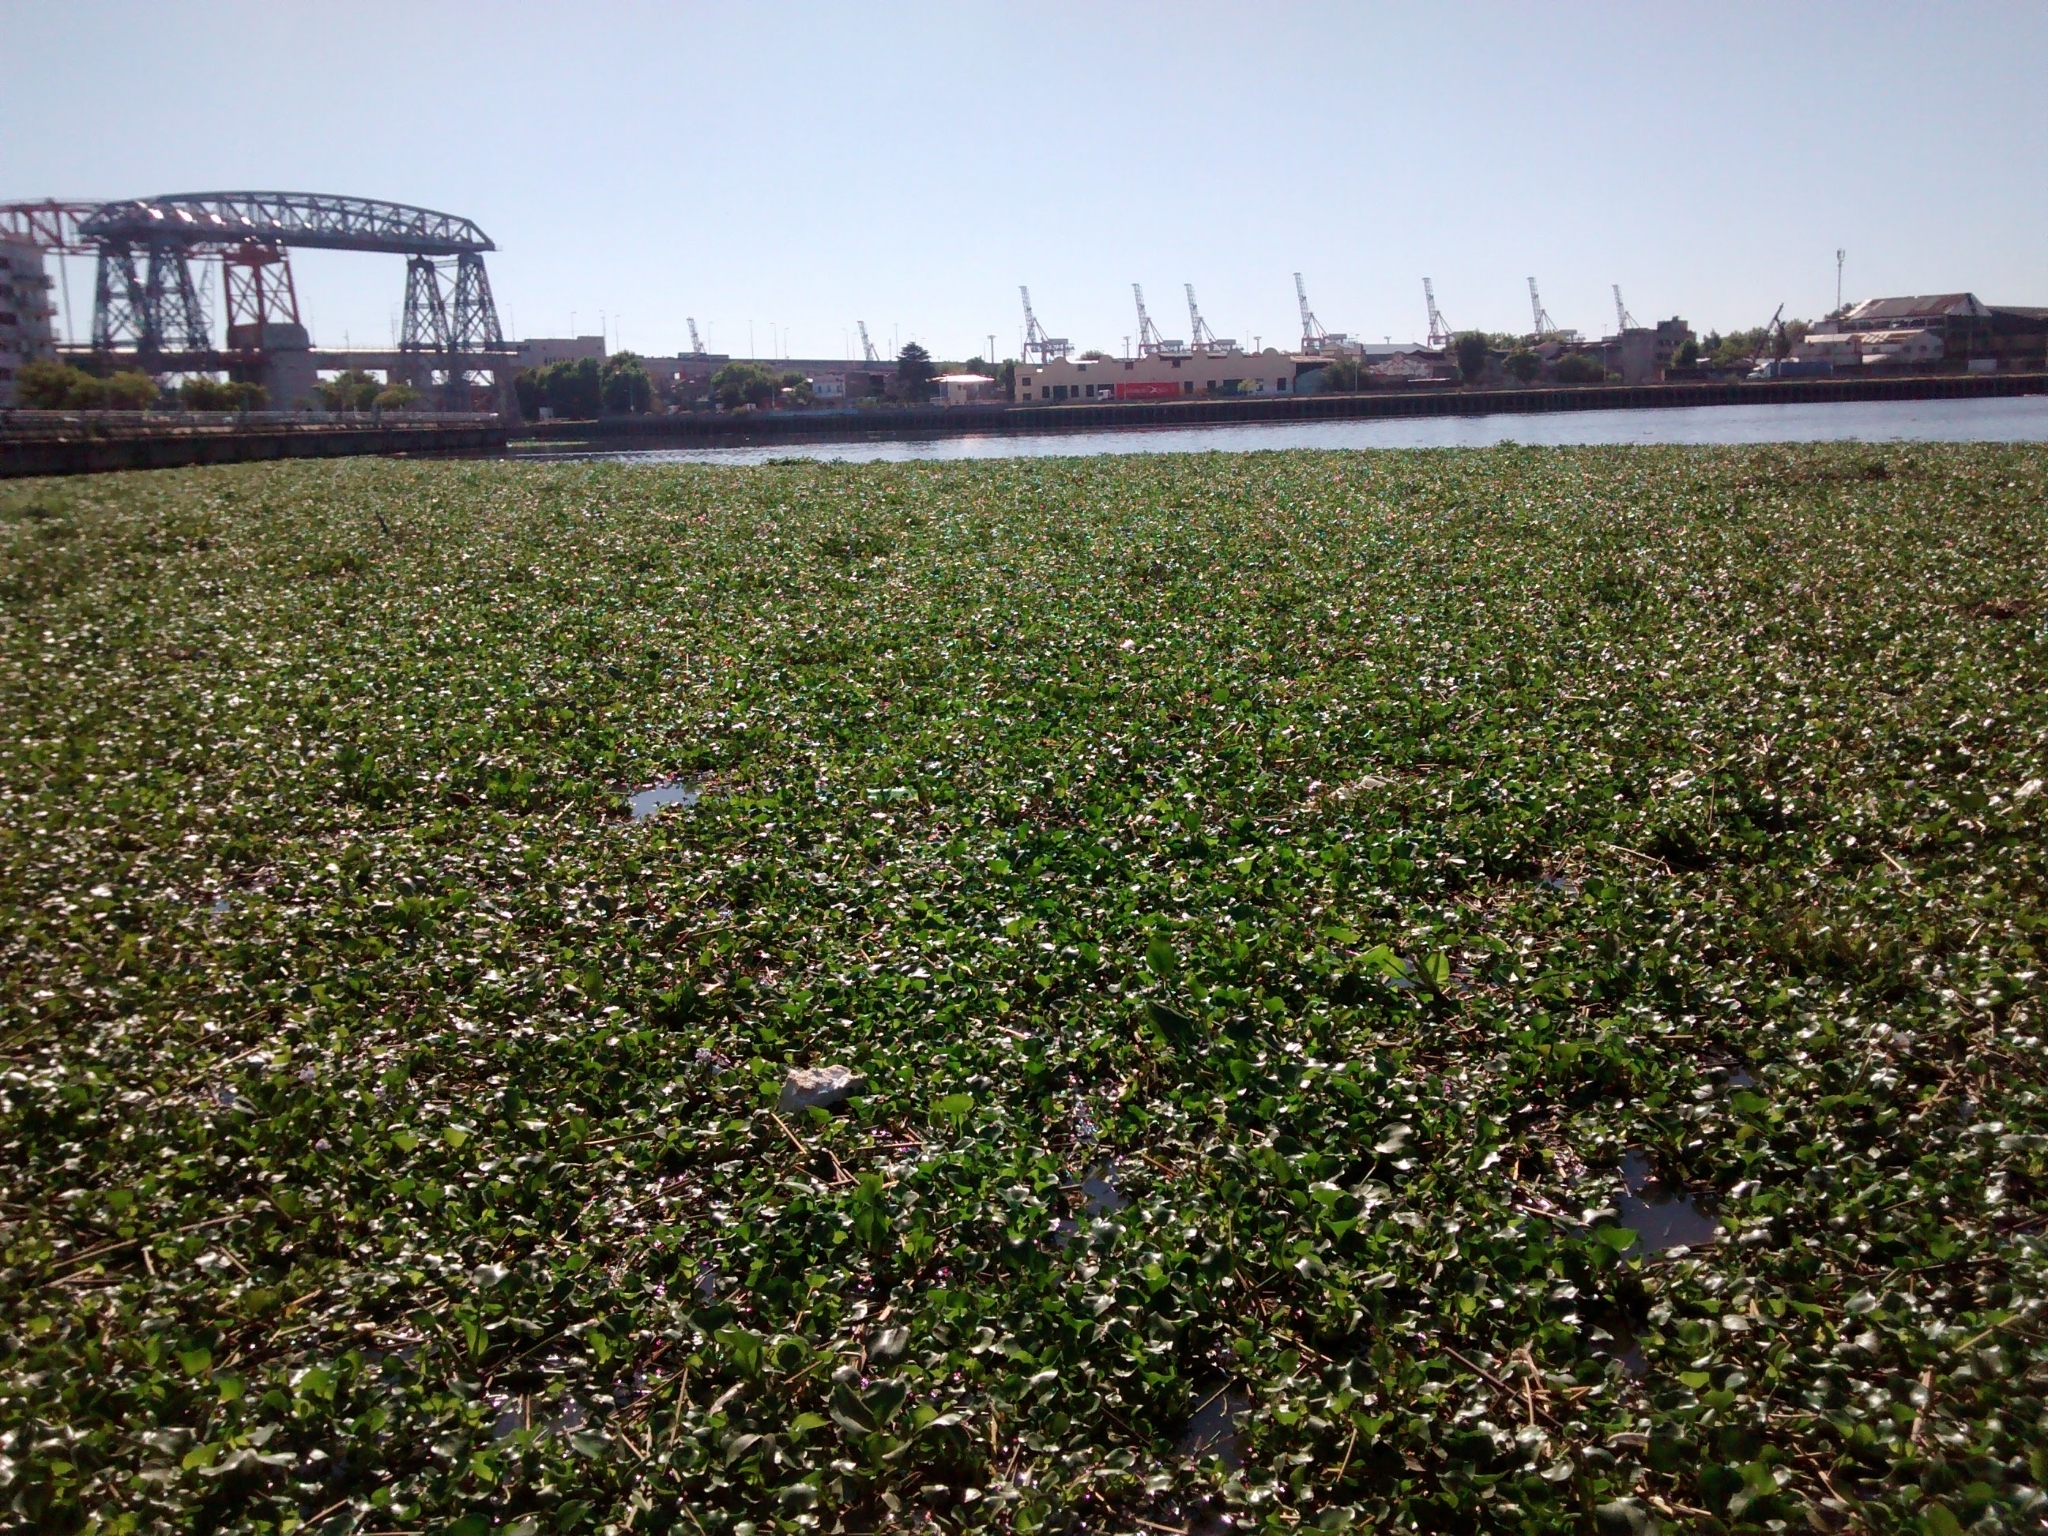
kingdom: Plantae
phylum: Tracheophyta
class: Liliopsida
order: Commelinales
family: Pontederiaceae
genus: Pontederia
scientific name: Pontederia crassipes
